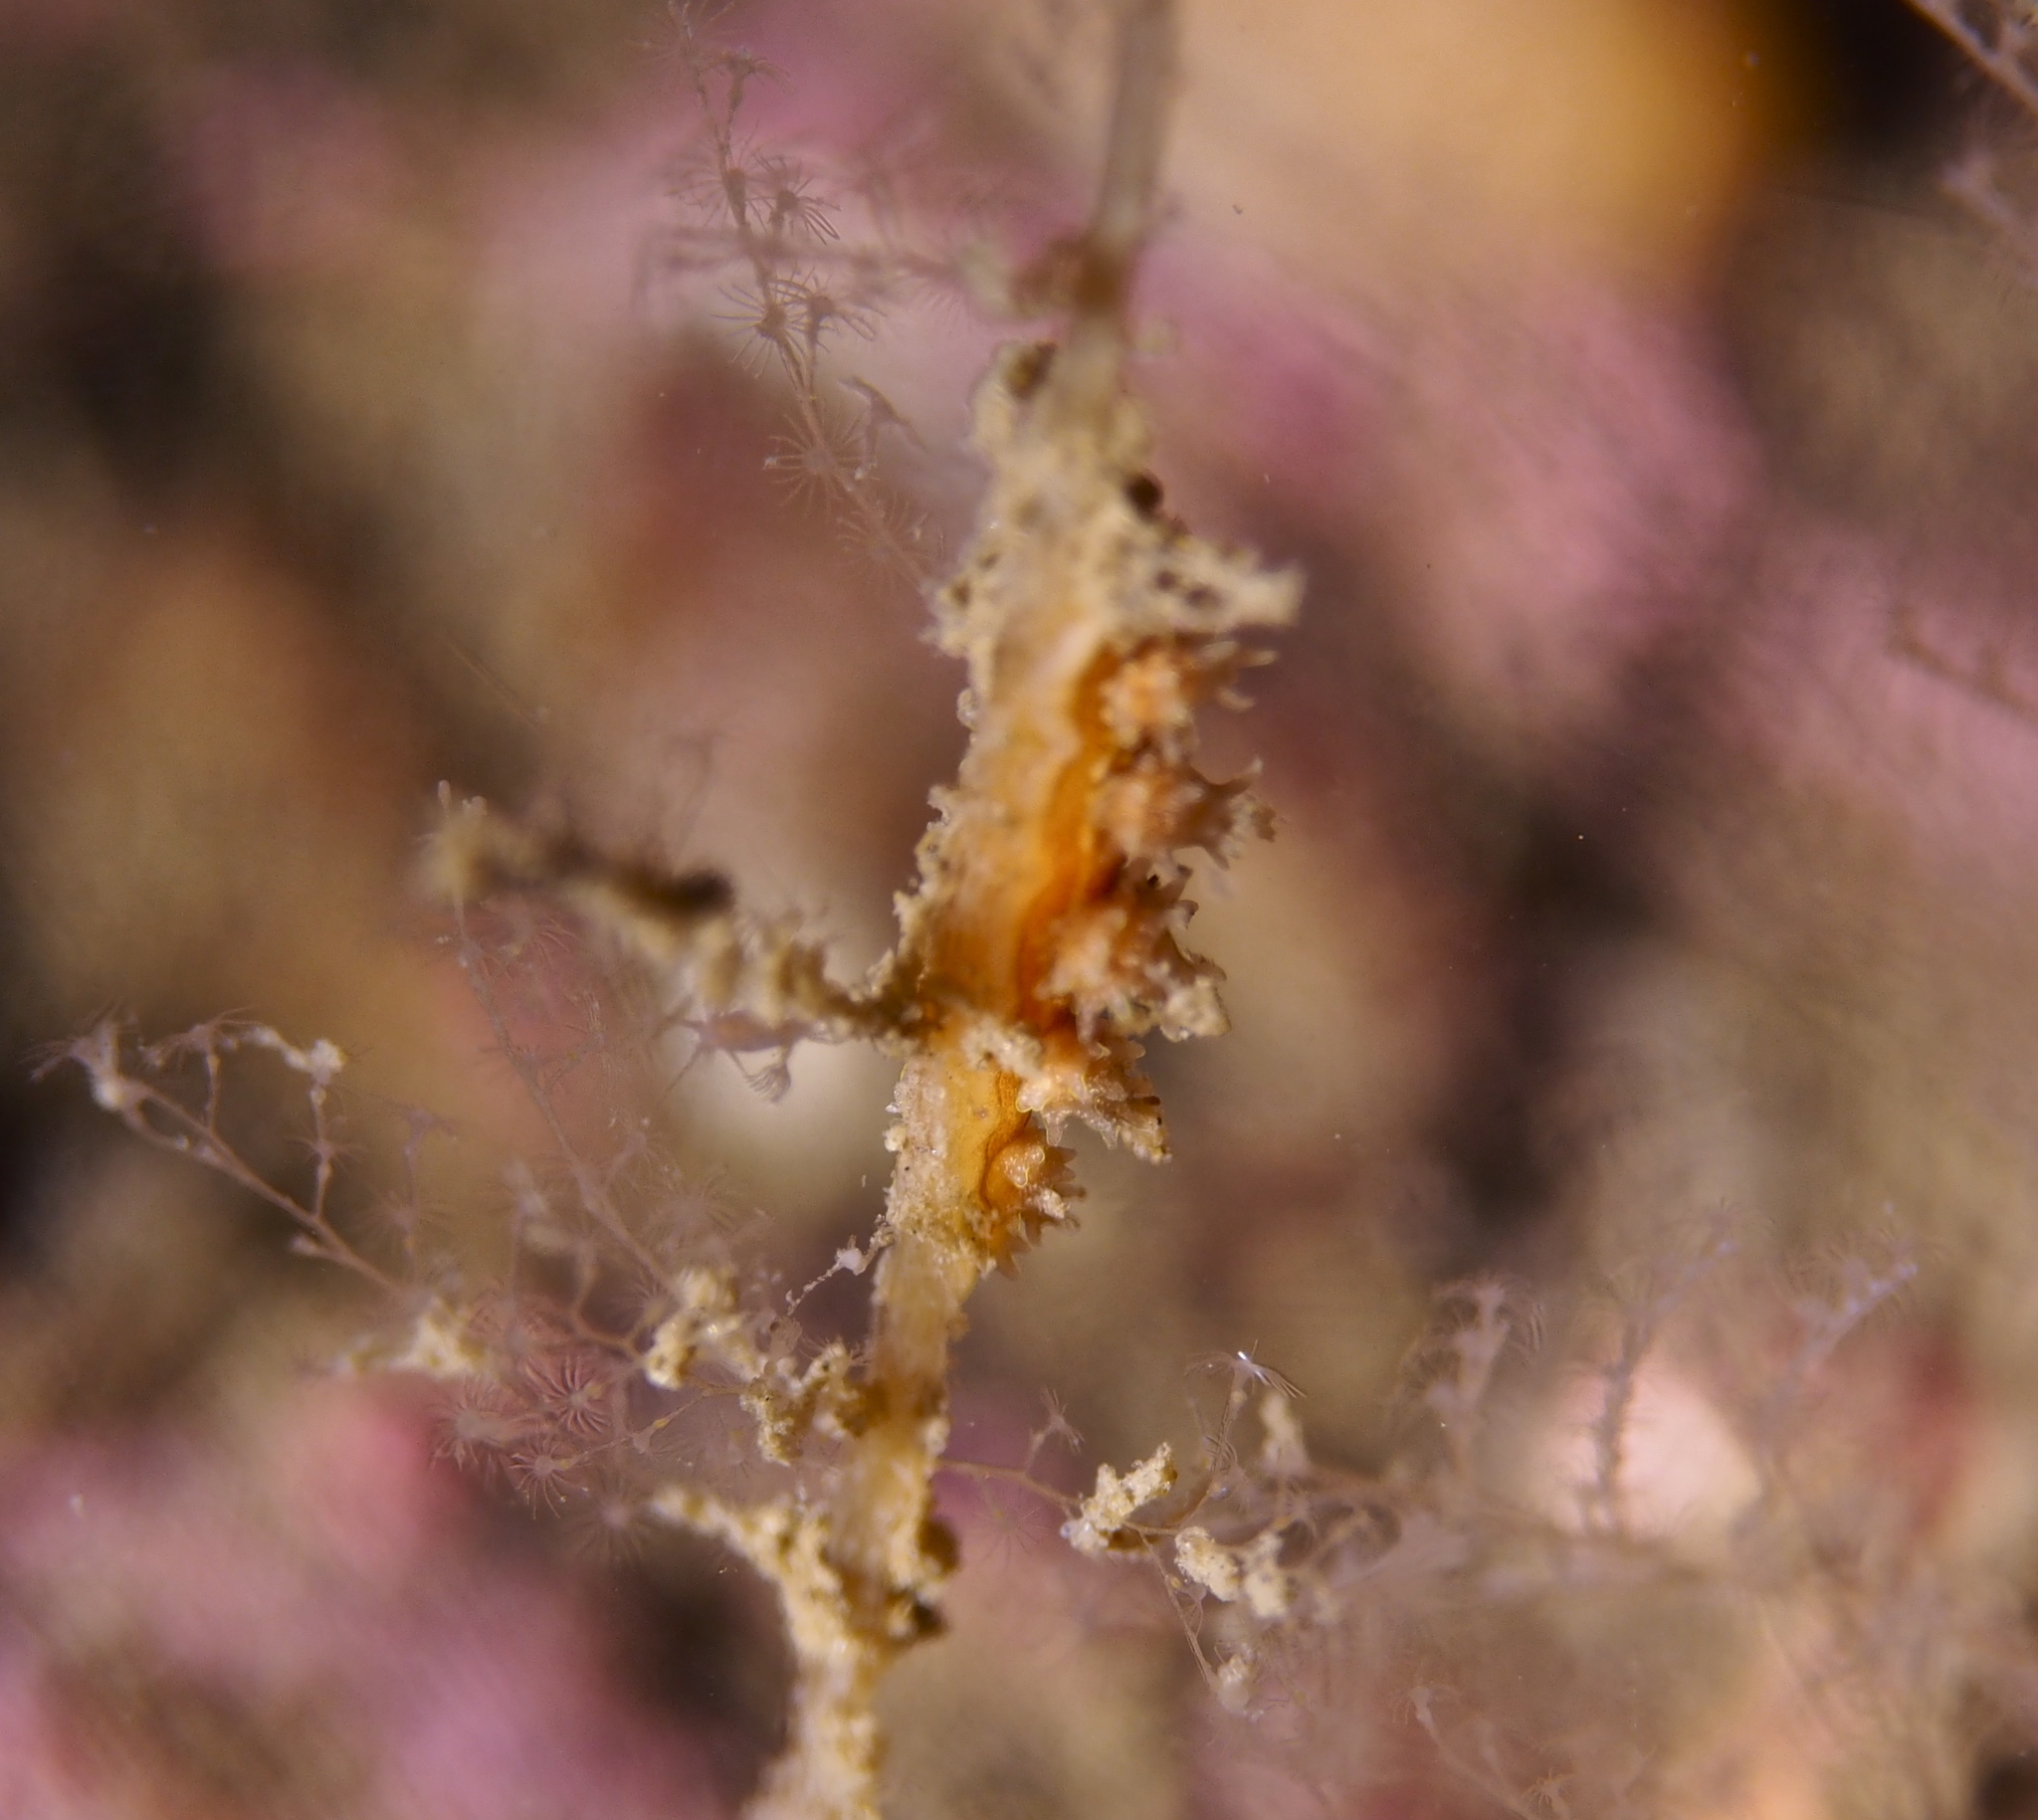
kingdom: Animalia
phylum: Mollusca
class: Gastropoda
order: Nudibranchia
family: Dotidae
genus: Doto
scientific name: Doto hystrix
